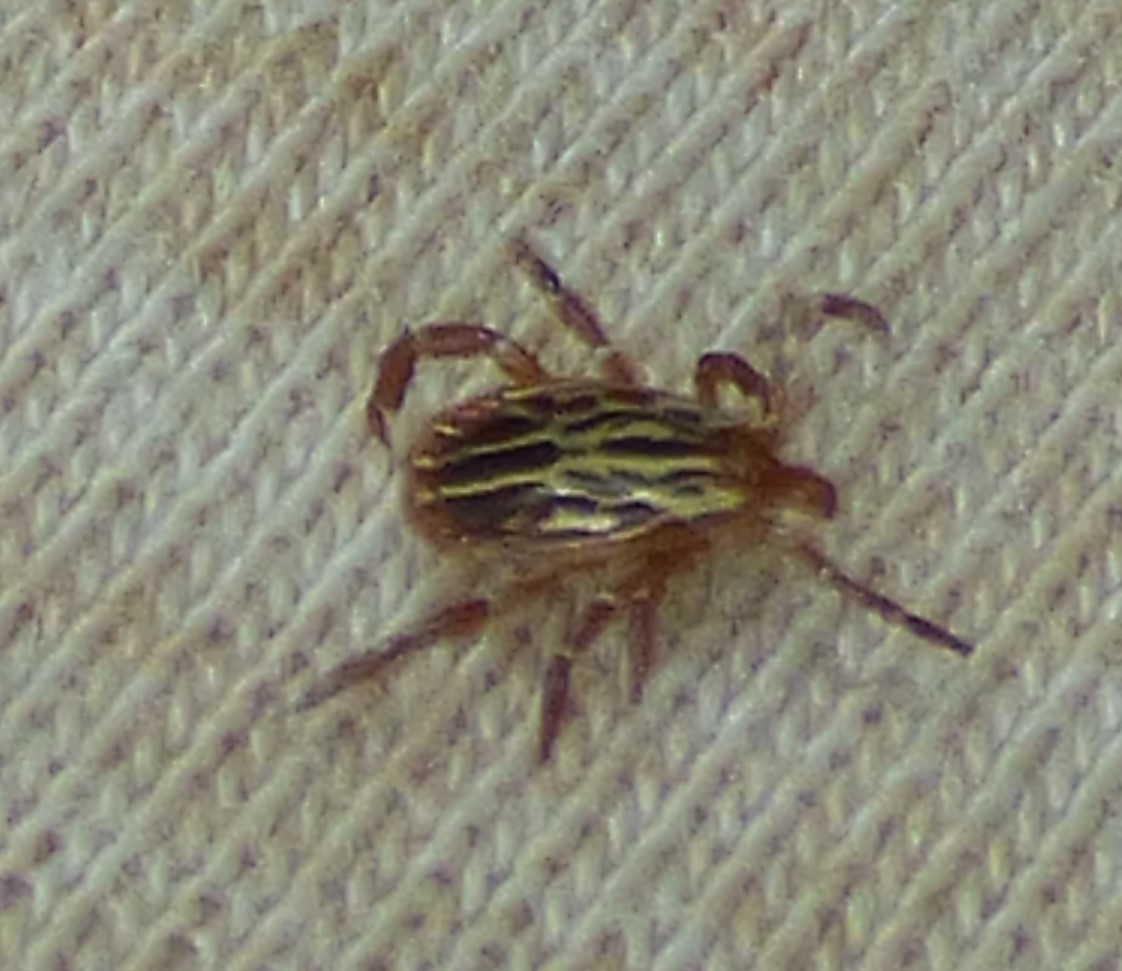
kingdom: Animalia
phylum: Arthropoda
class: Arachnida
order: Ixodida
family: Ixodidae
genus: Amblyomma
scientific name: Amblyomma maculatum
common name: Gulf coast tick
